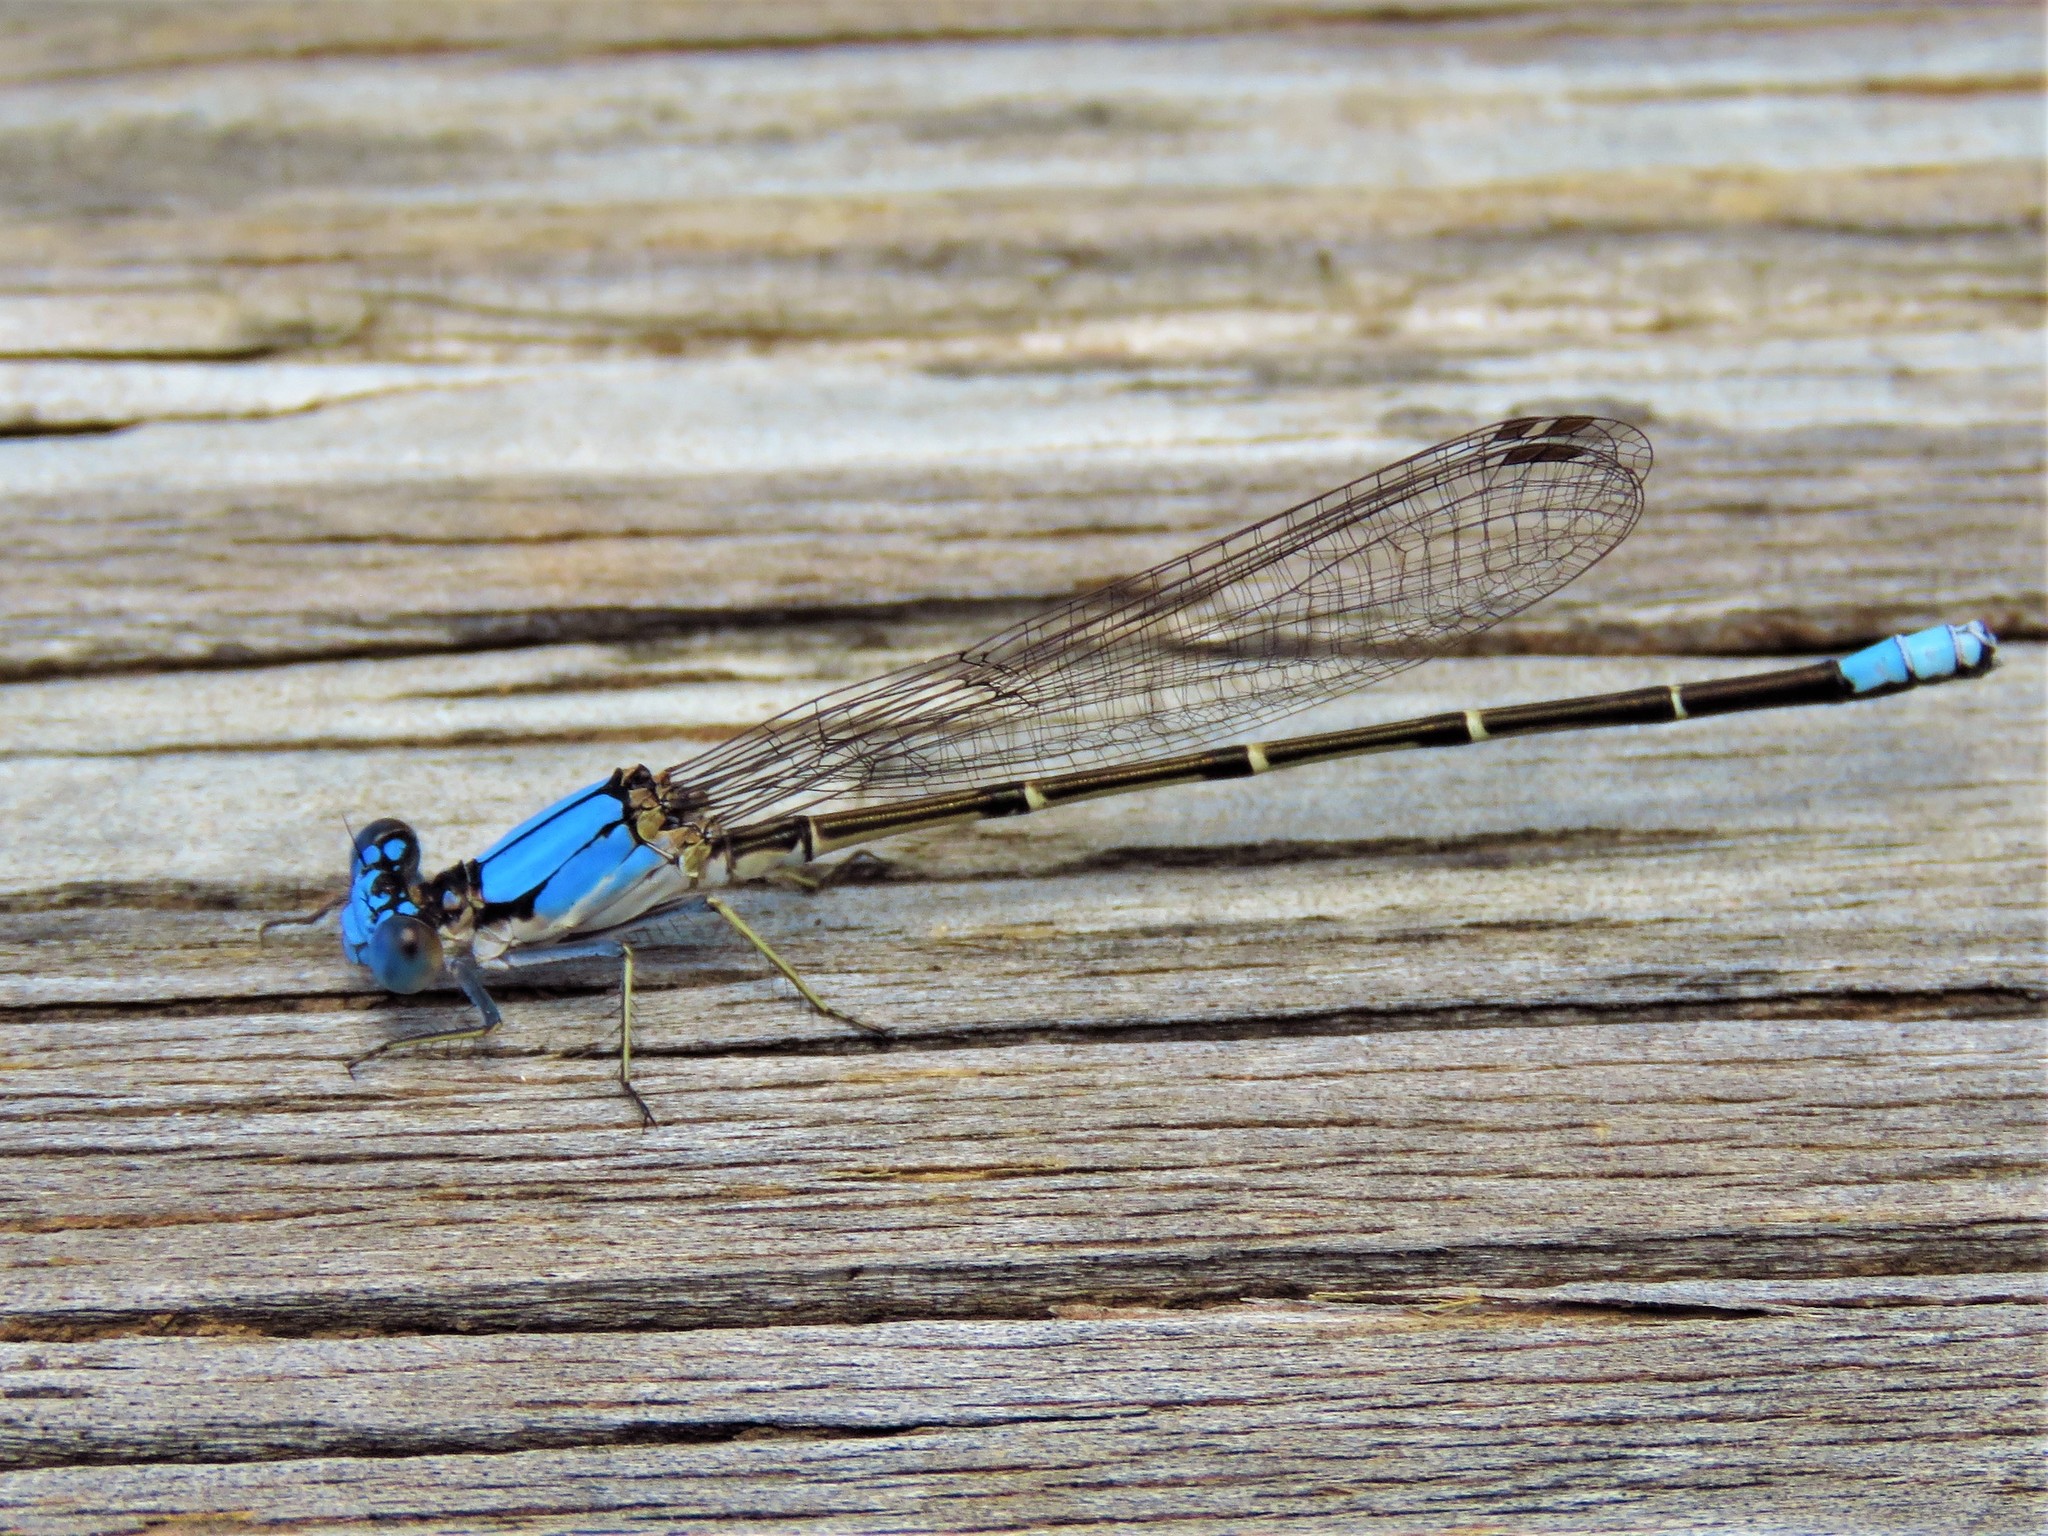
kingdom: Animalia
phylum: Arthropoda
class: Insecta
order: Odonata
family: Coenagrionidae
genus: Argia
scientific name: Argia apicalis
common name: Blue-fronted dancer
